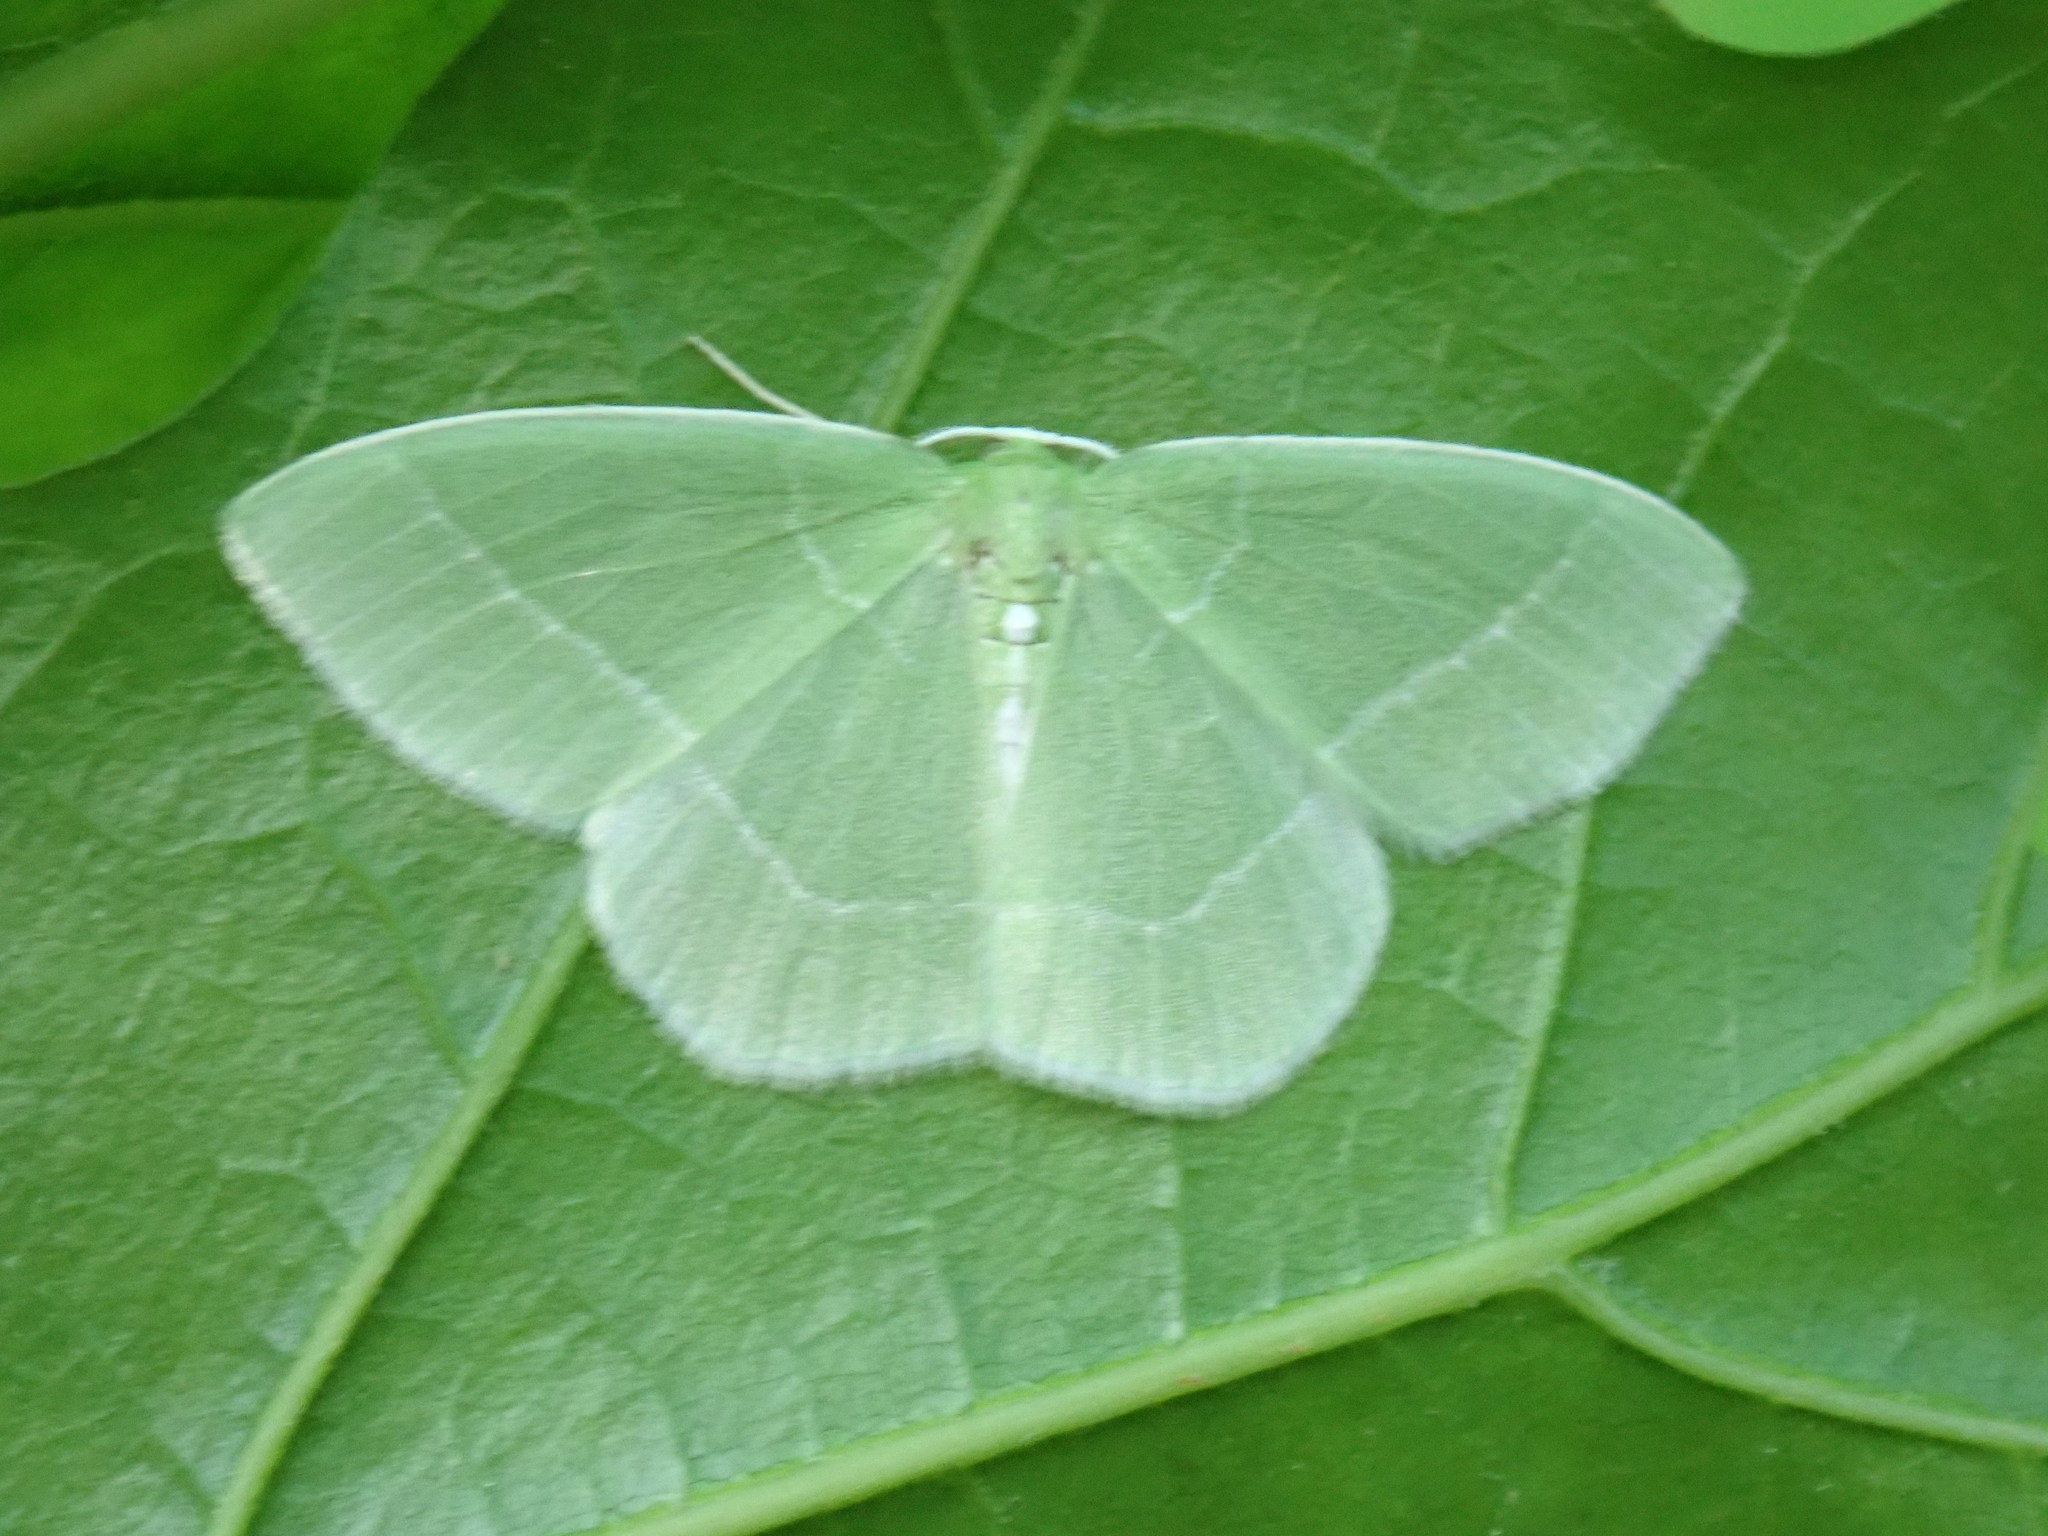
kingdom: Animalia
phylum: Arthropoda
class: Insecta
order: Lepidoptera
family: Geometridae
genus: Nemoria
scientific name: Nemoria mimosaria
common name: White-fringed emerald
